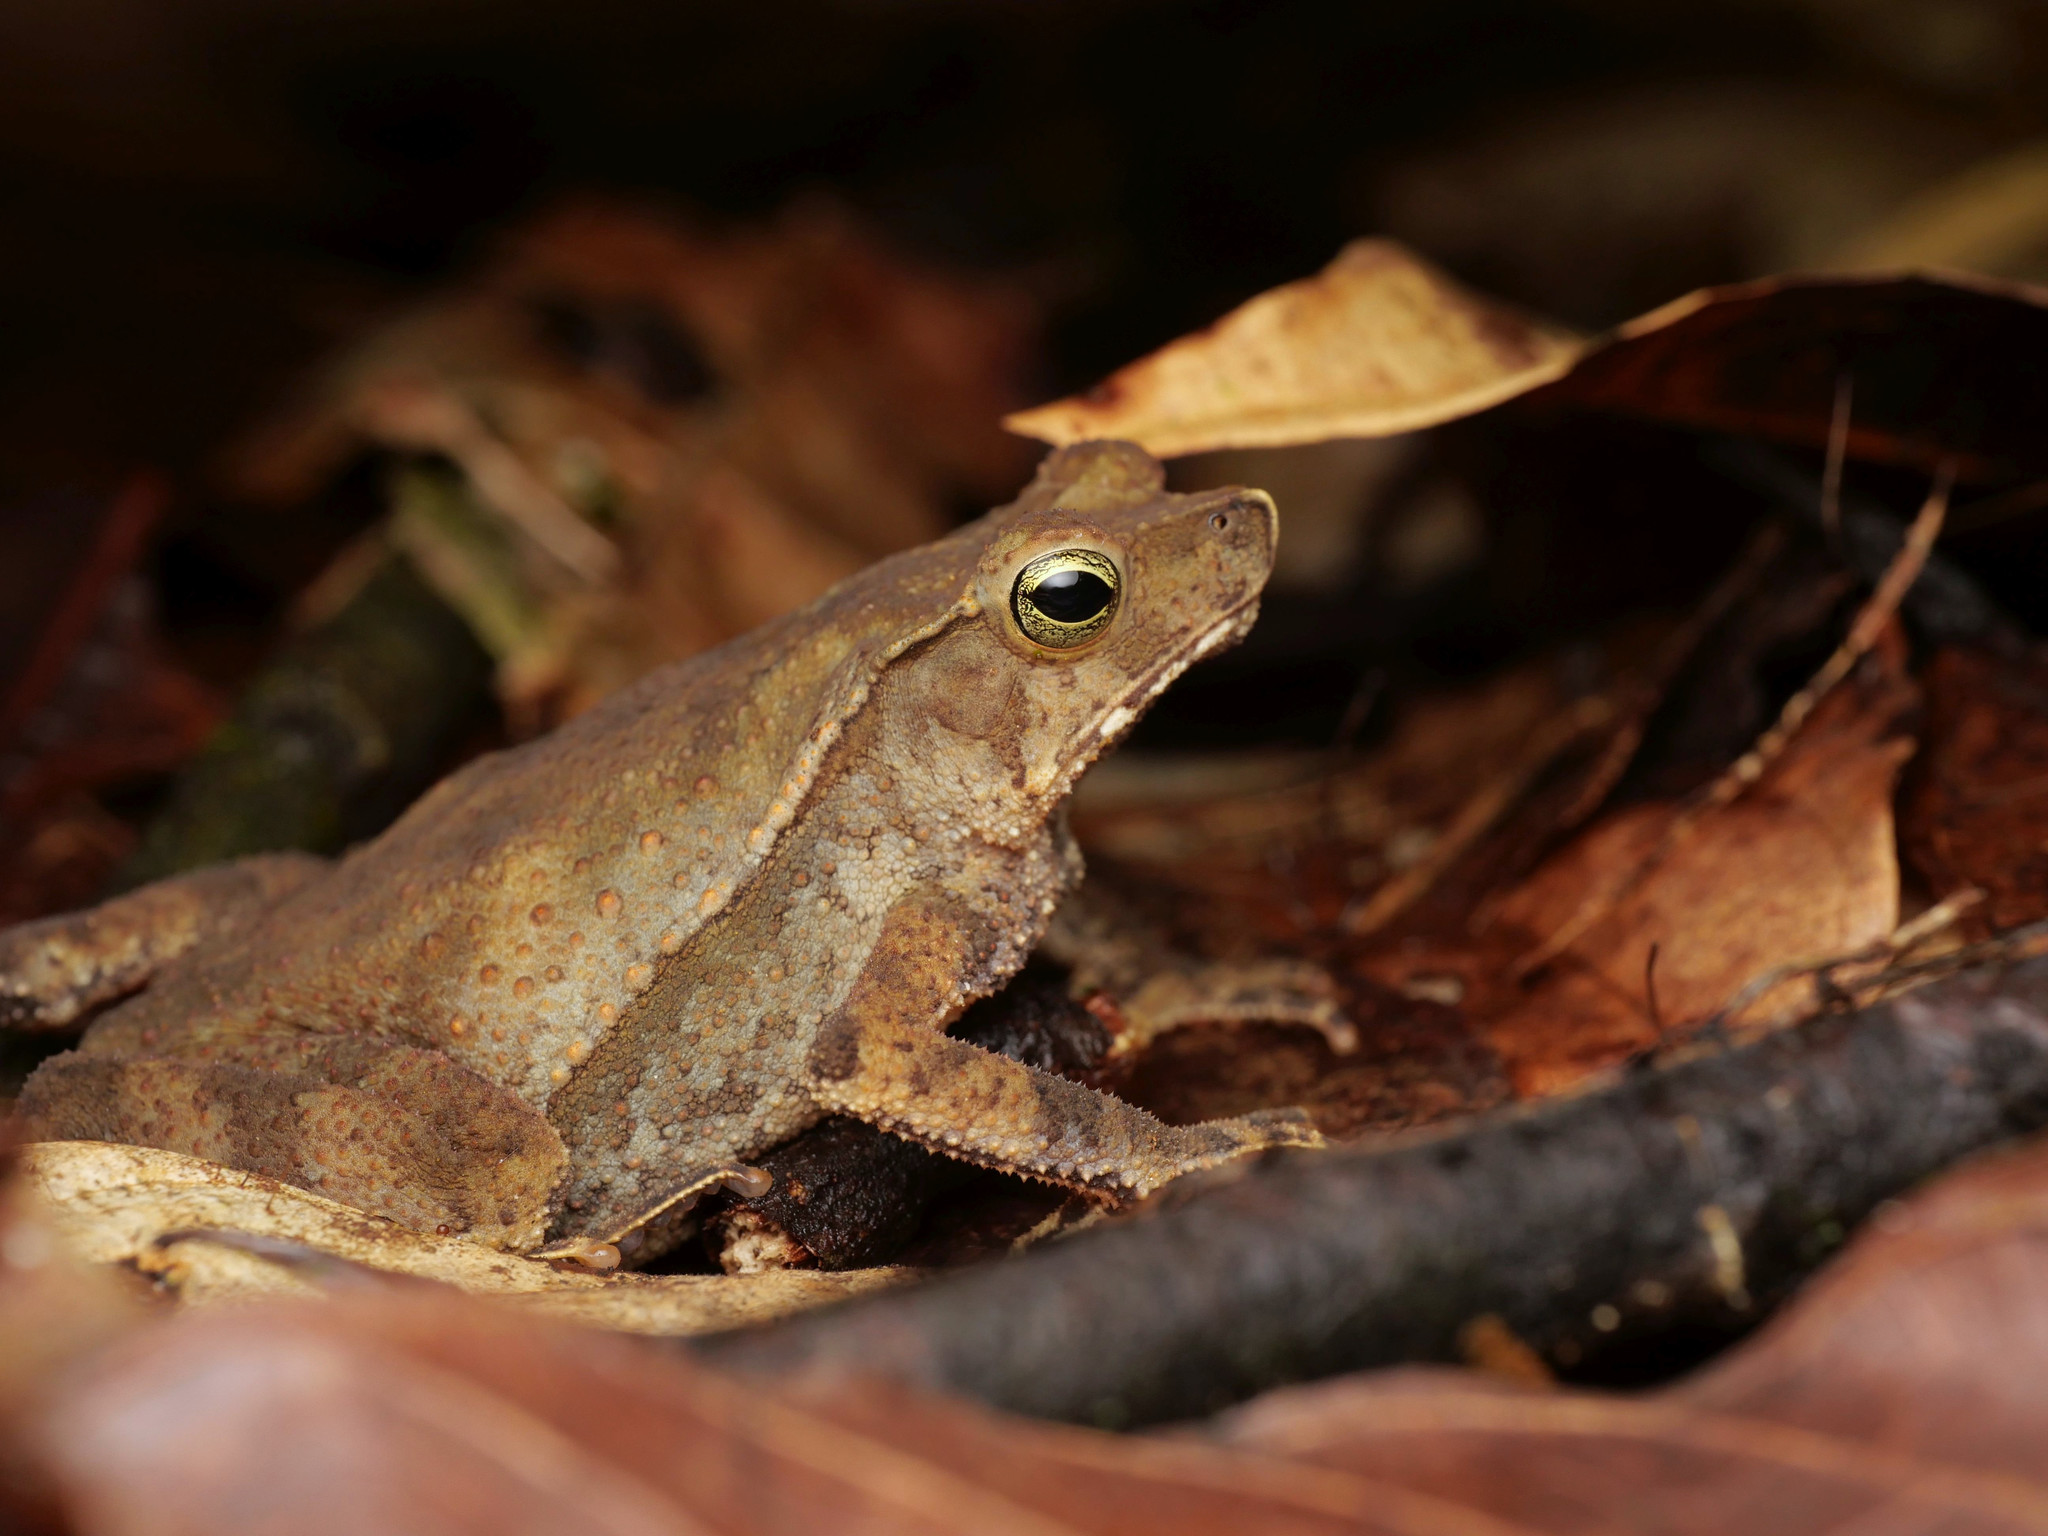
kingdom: Animalia
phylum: Chordata
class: Amphibia
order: Anura
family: Bufonidae
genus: Rhinella
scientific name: Rhinella alata
